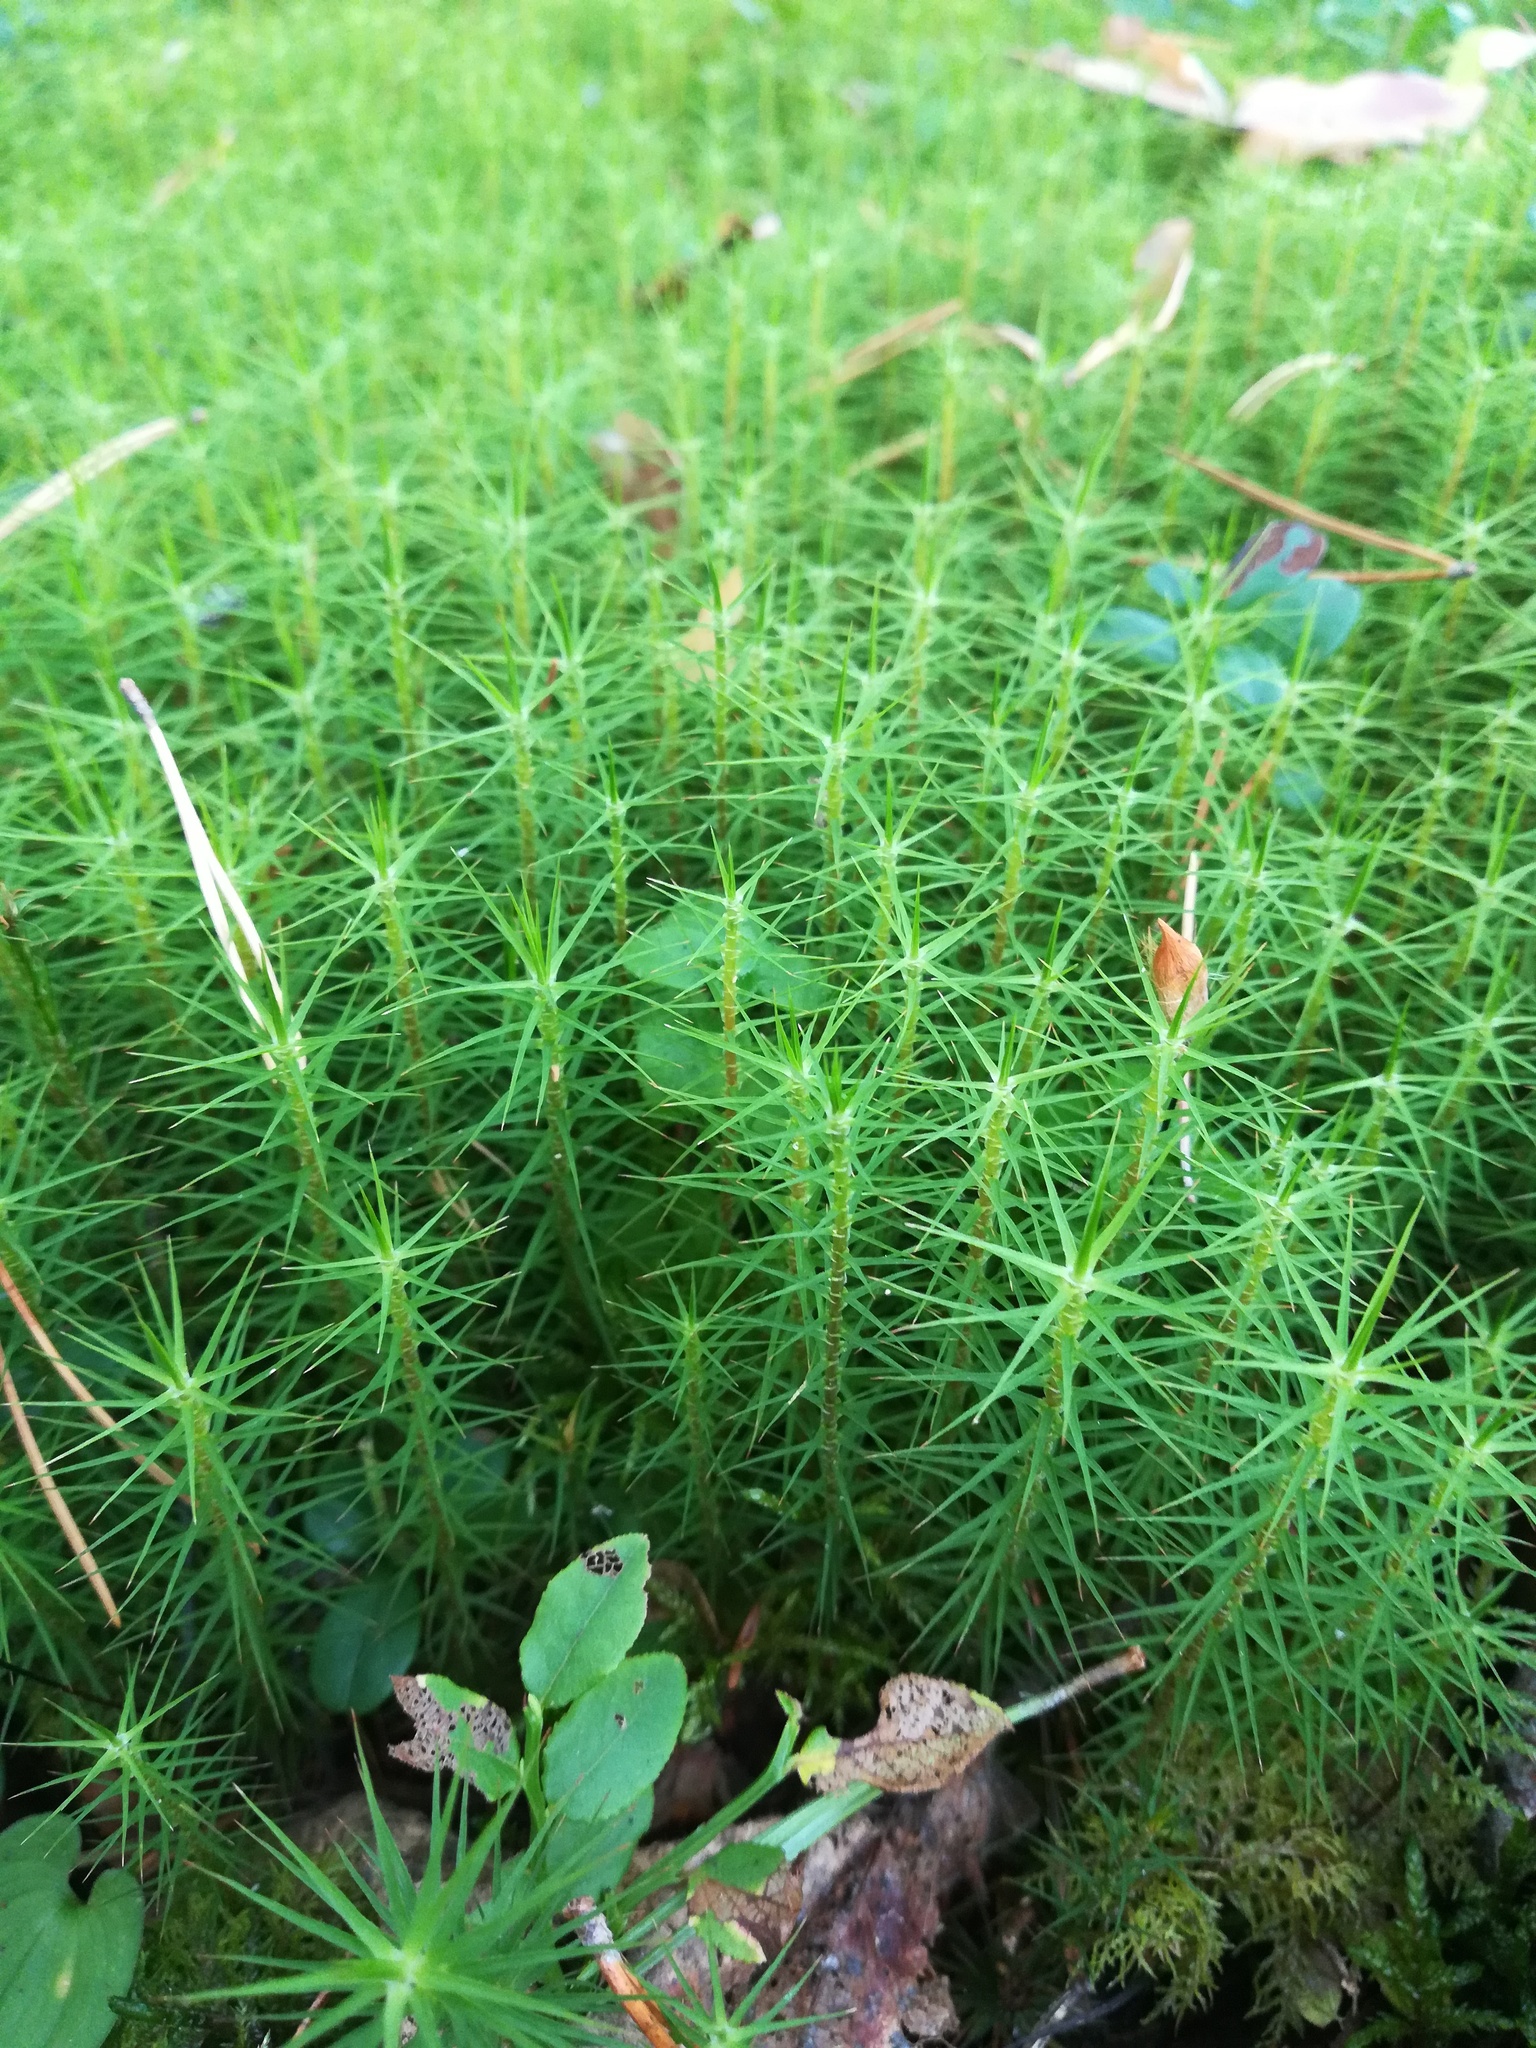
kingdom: Plantae
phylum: Bryophyta
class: Polytrichopsida
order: Polytrichales
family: Polytrichaceae
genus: Polytrichum
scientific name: Polytrichum commune
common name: Common haircap
